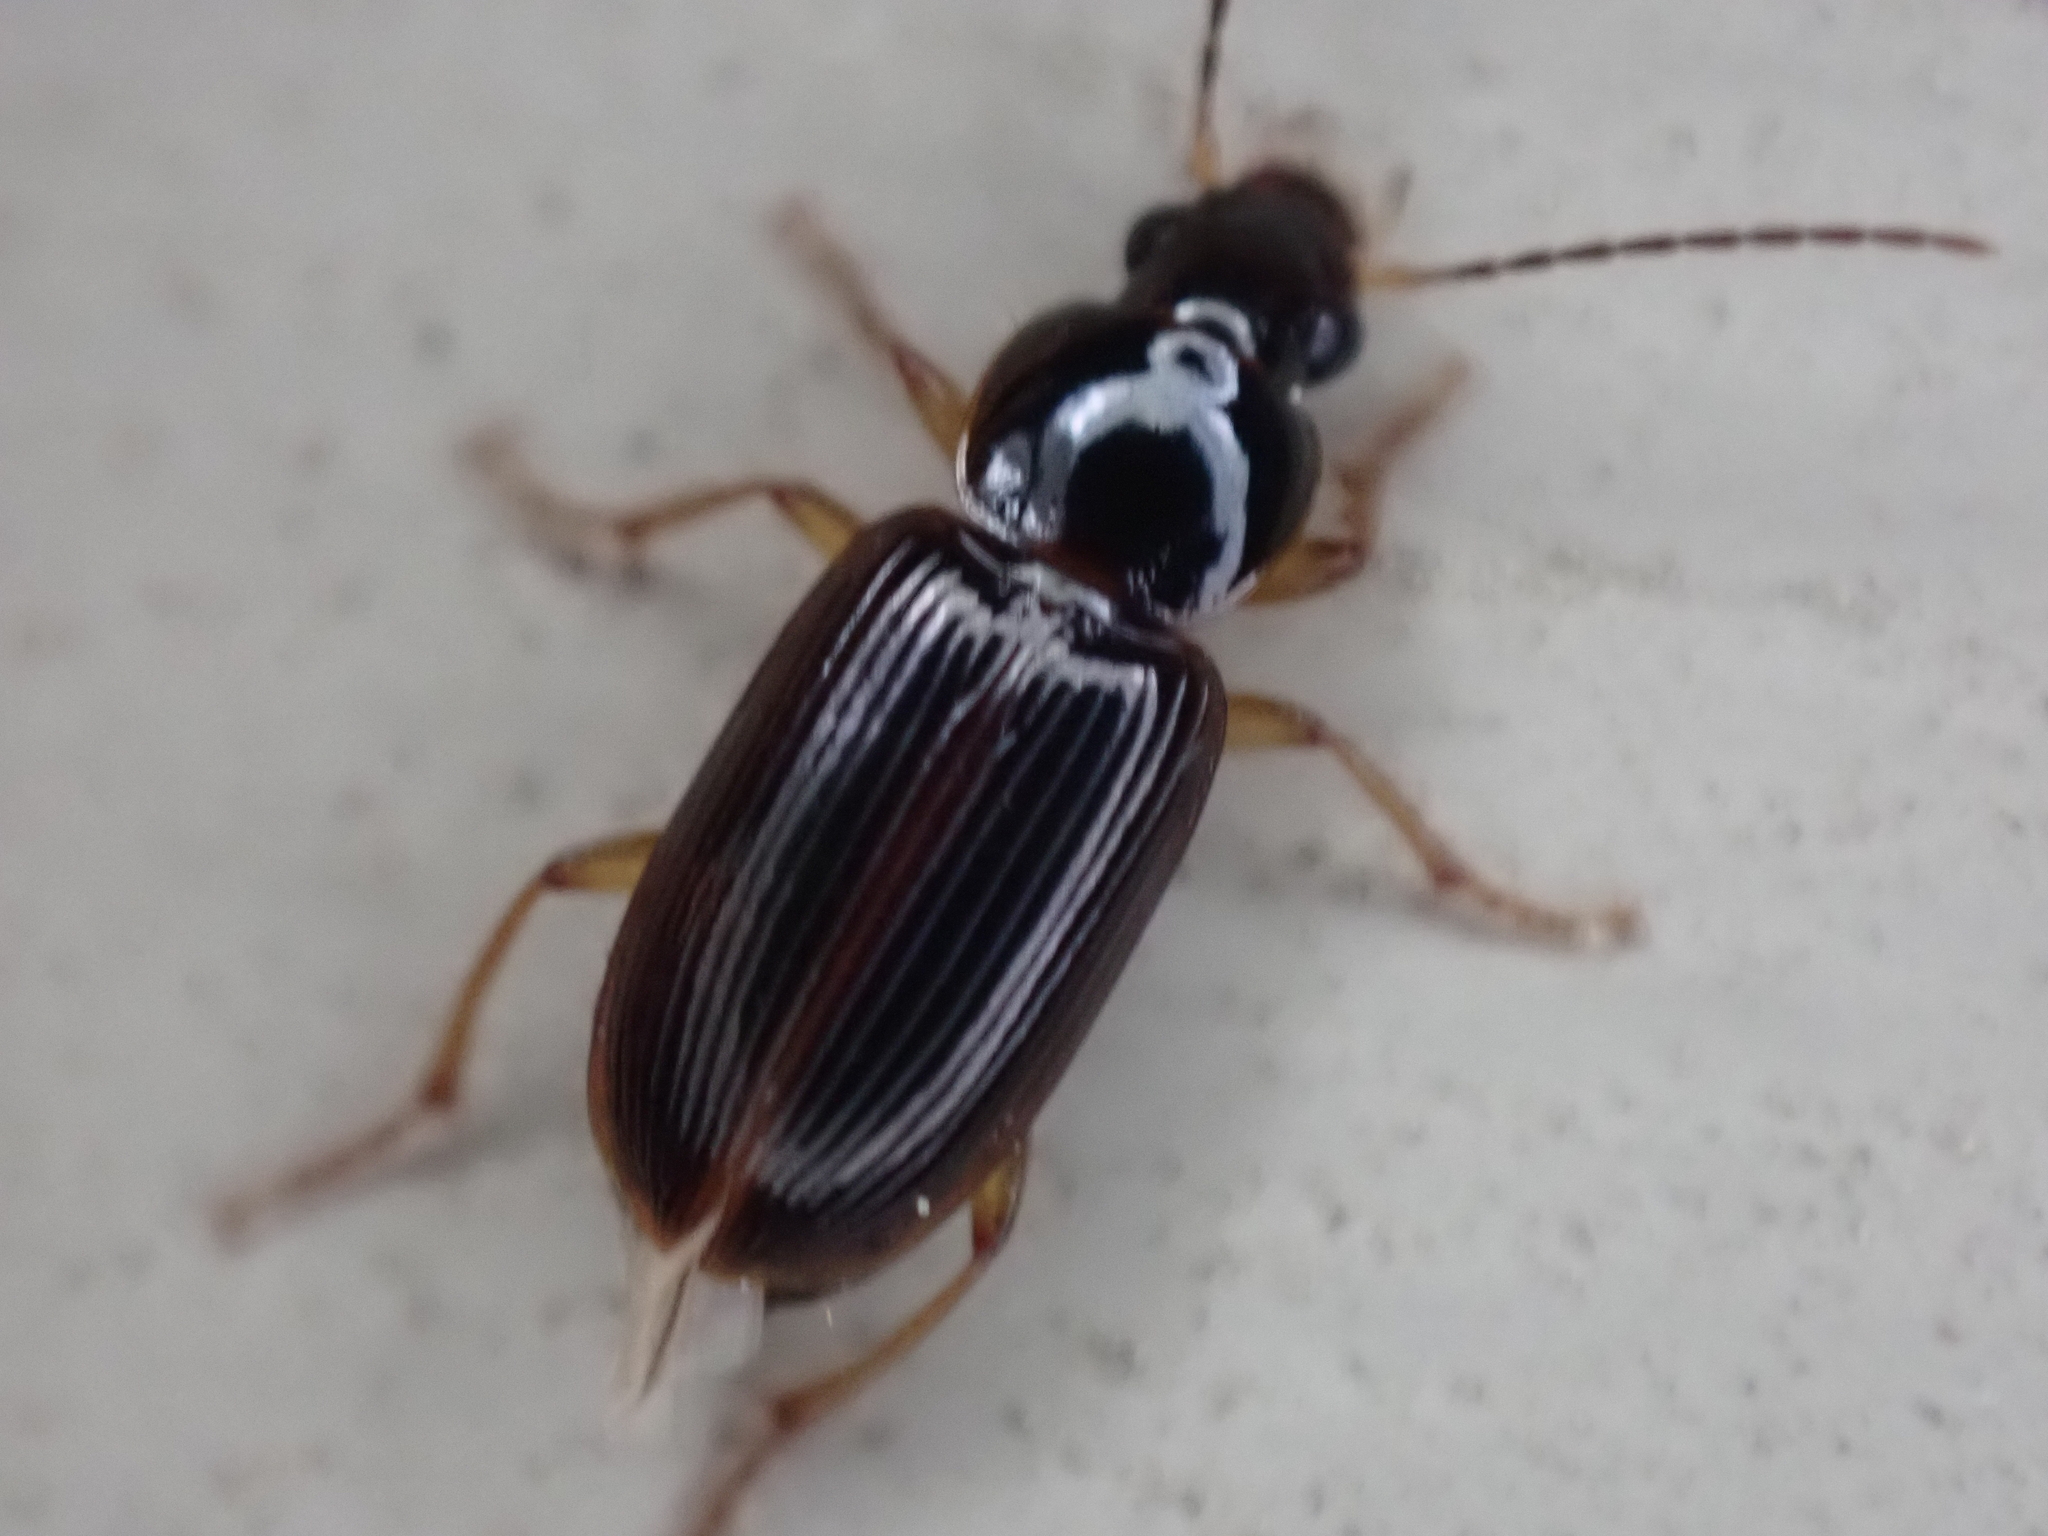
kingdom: Animalia
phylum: Arthropoda
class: Insecta
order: Coleoptera
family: Carabidae
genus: Stenolophus
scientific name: Stenolophus ochropezus
